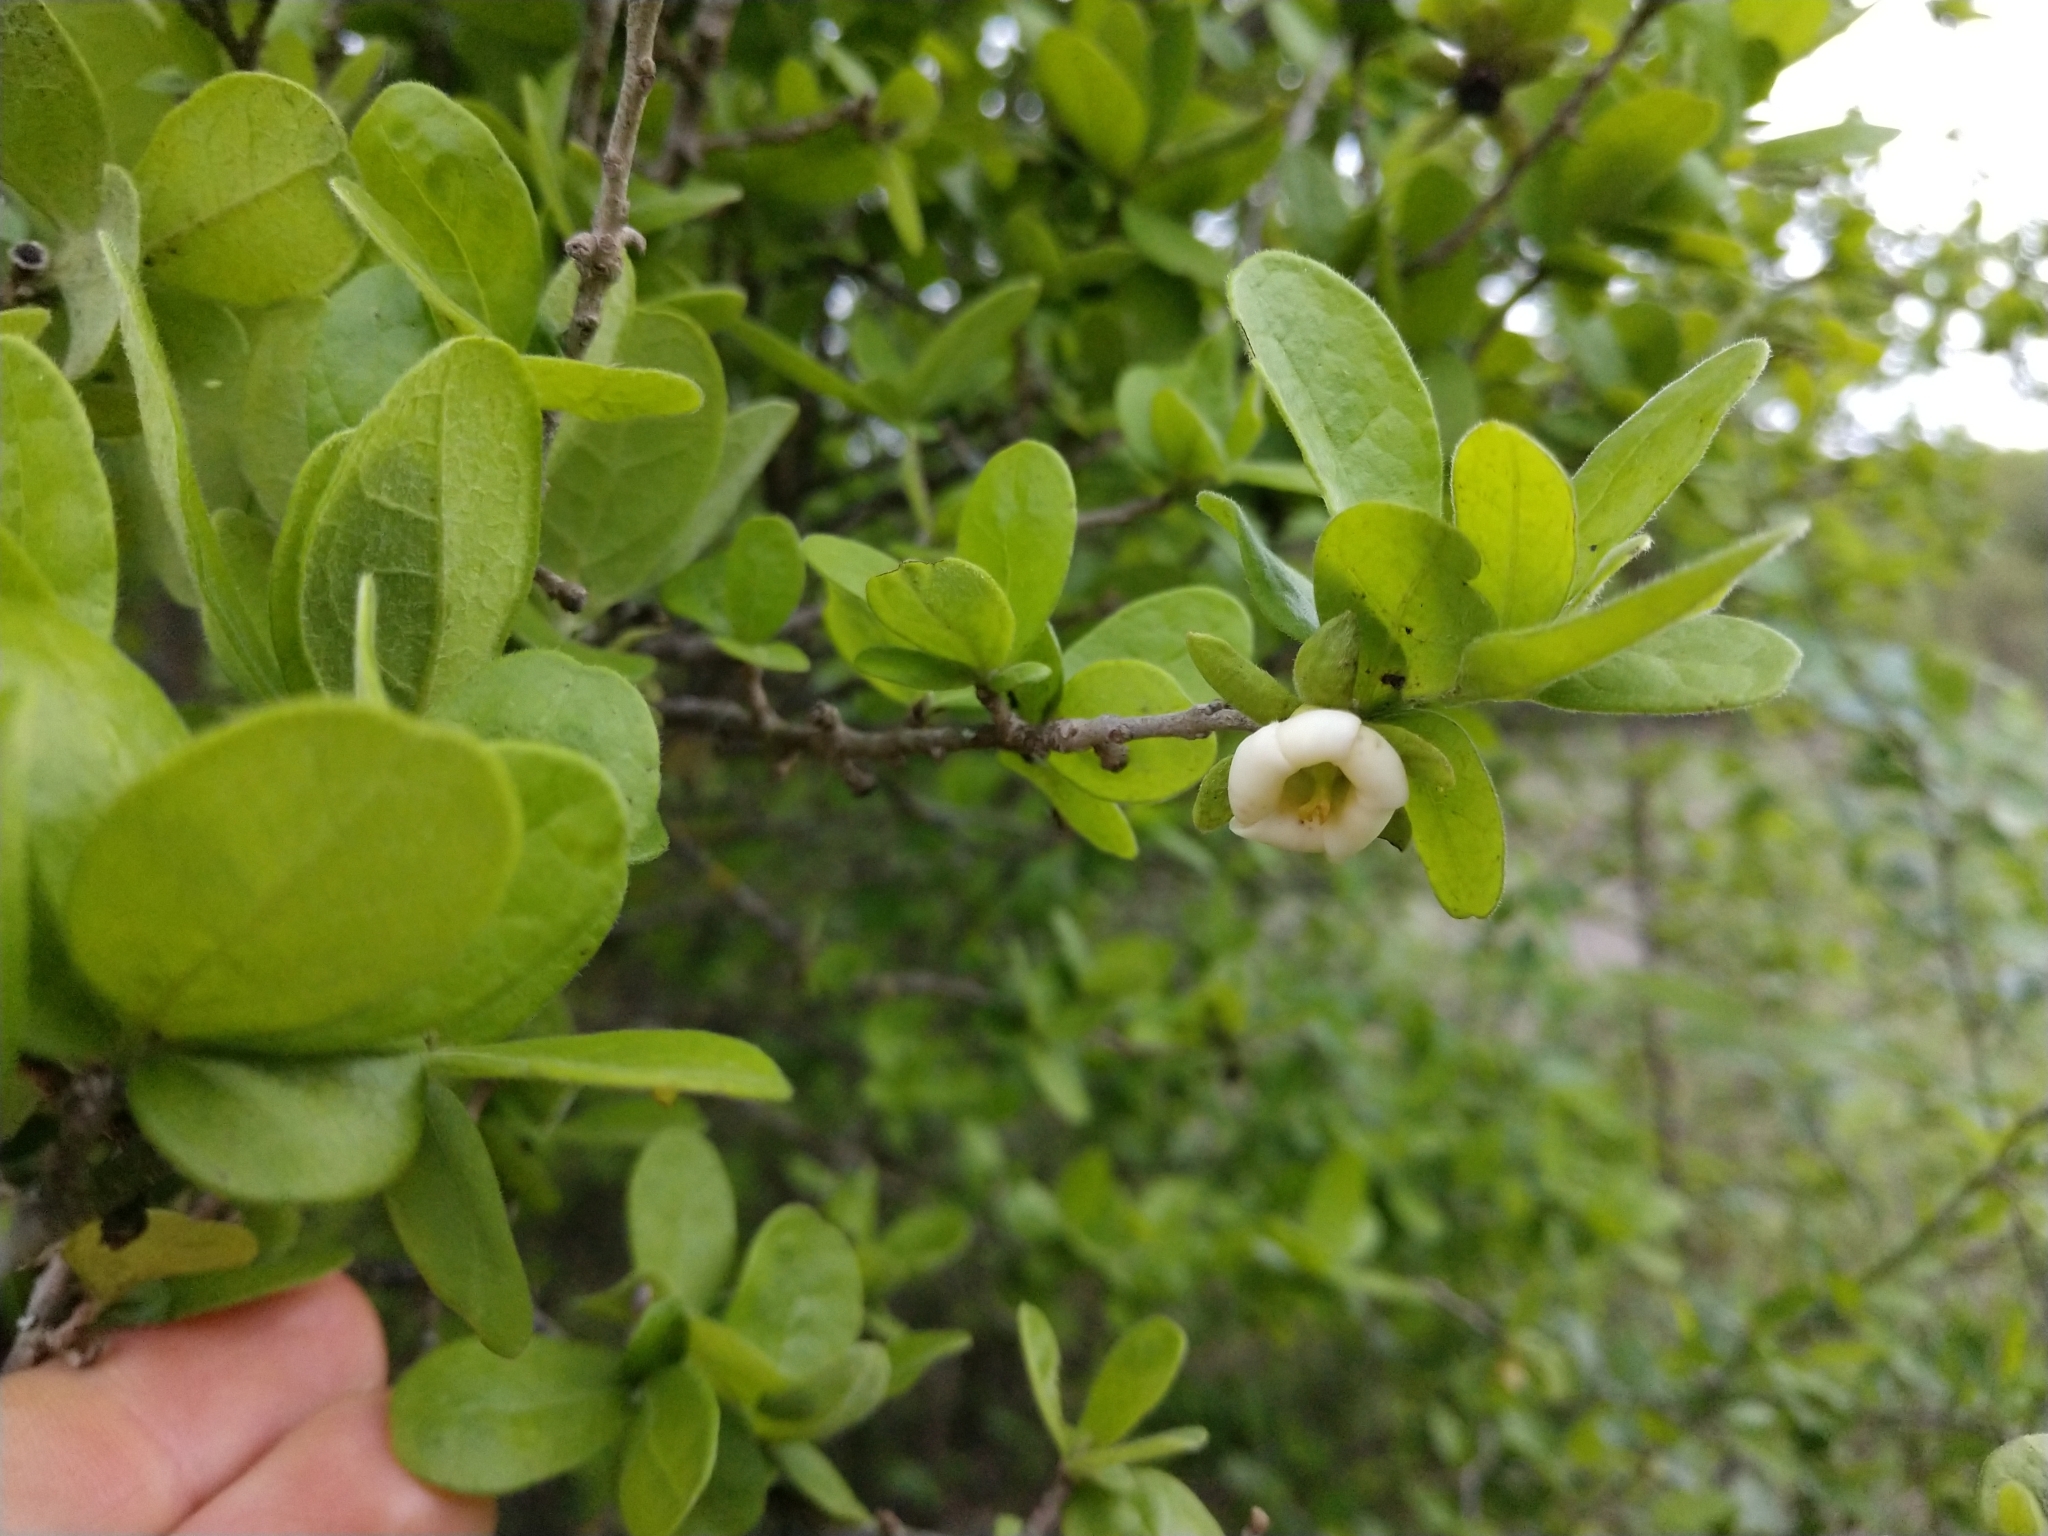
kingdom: Plantae
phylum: Tracheophyta
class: Magnoliopsida
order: Ericales
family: Ebenaceae
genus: Diospyros
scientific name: Diospyros texana
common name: Texas persimmon
